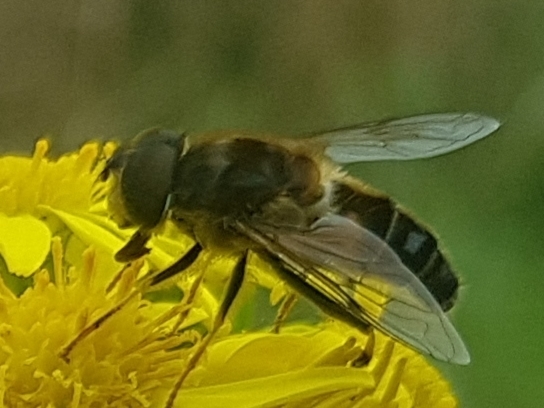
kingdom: Animalia
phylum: Arthropoda
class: Insecta
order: Diptera
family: Syrphidae
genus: Eristalis
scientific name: Eristalis pertinax
